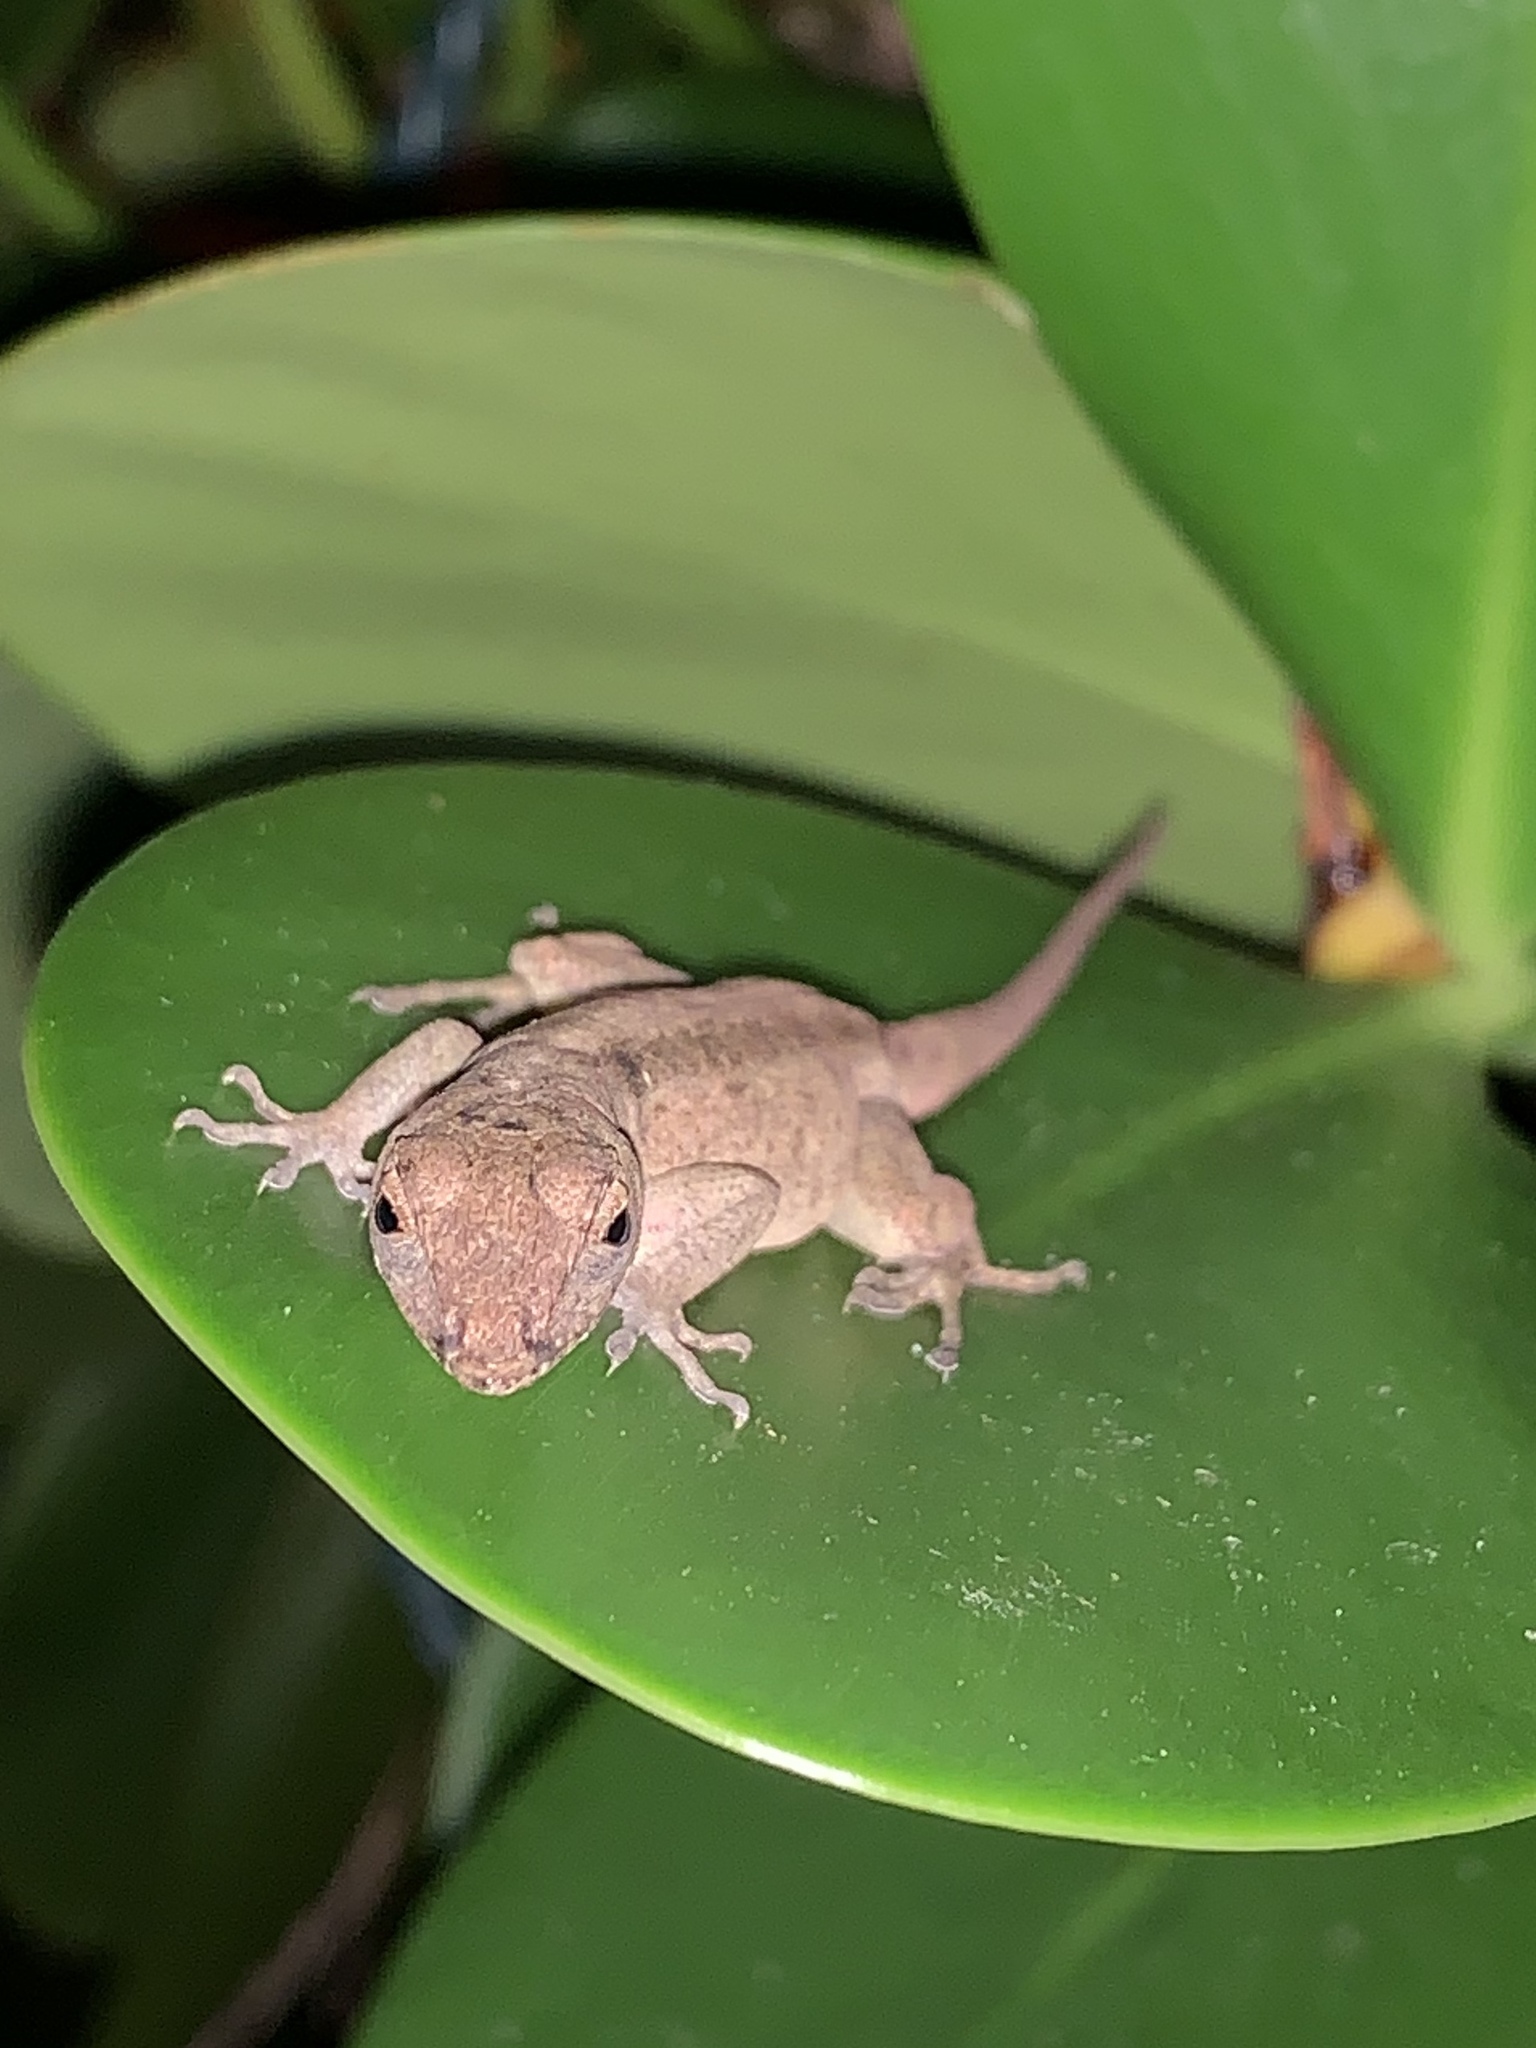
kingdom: Animalia
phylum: Chordata
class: Squamata
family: Dactyloidae
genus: Anolis
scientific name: Anolis sagrei
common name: Brown anole
